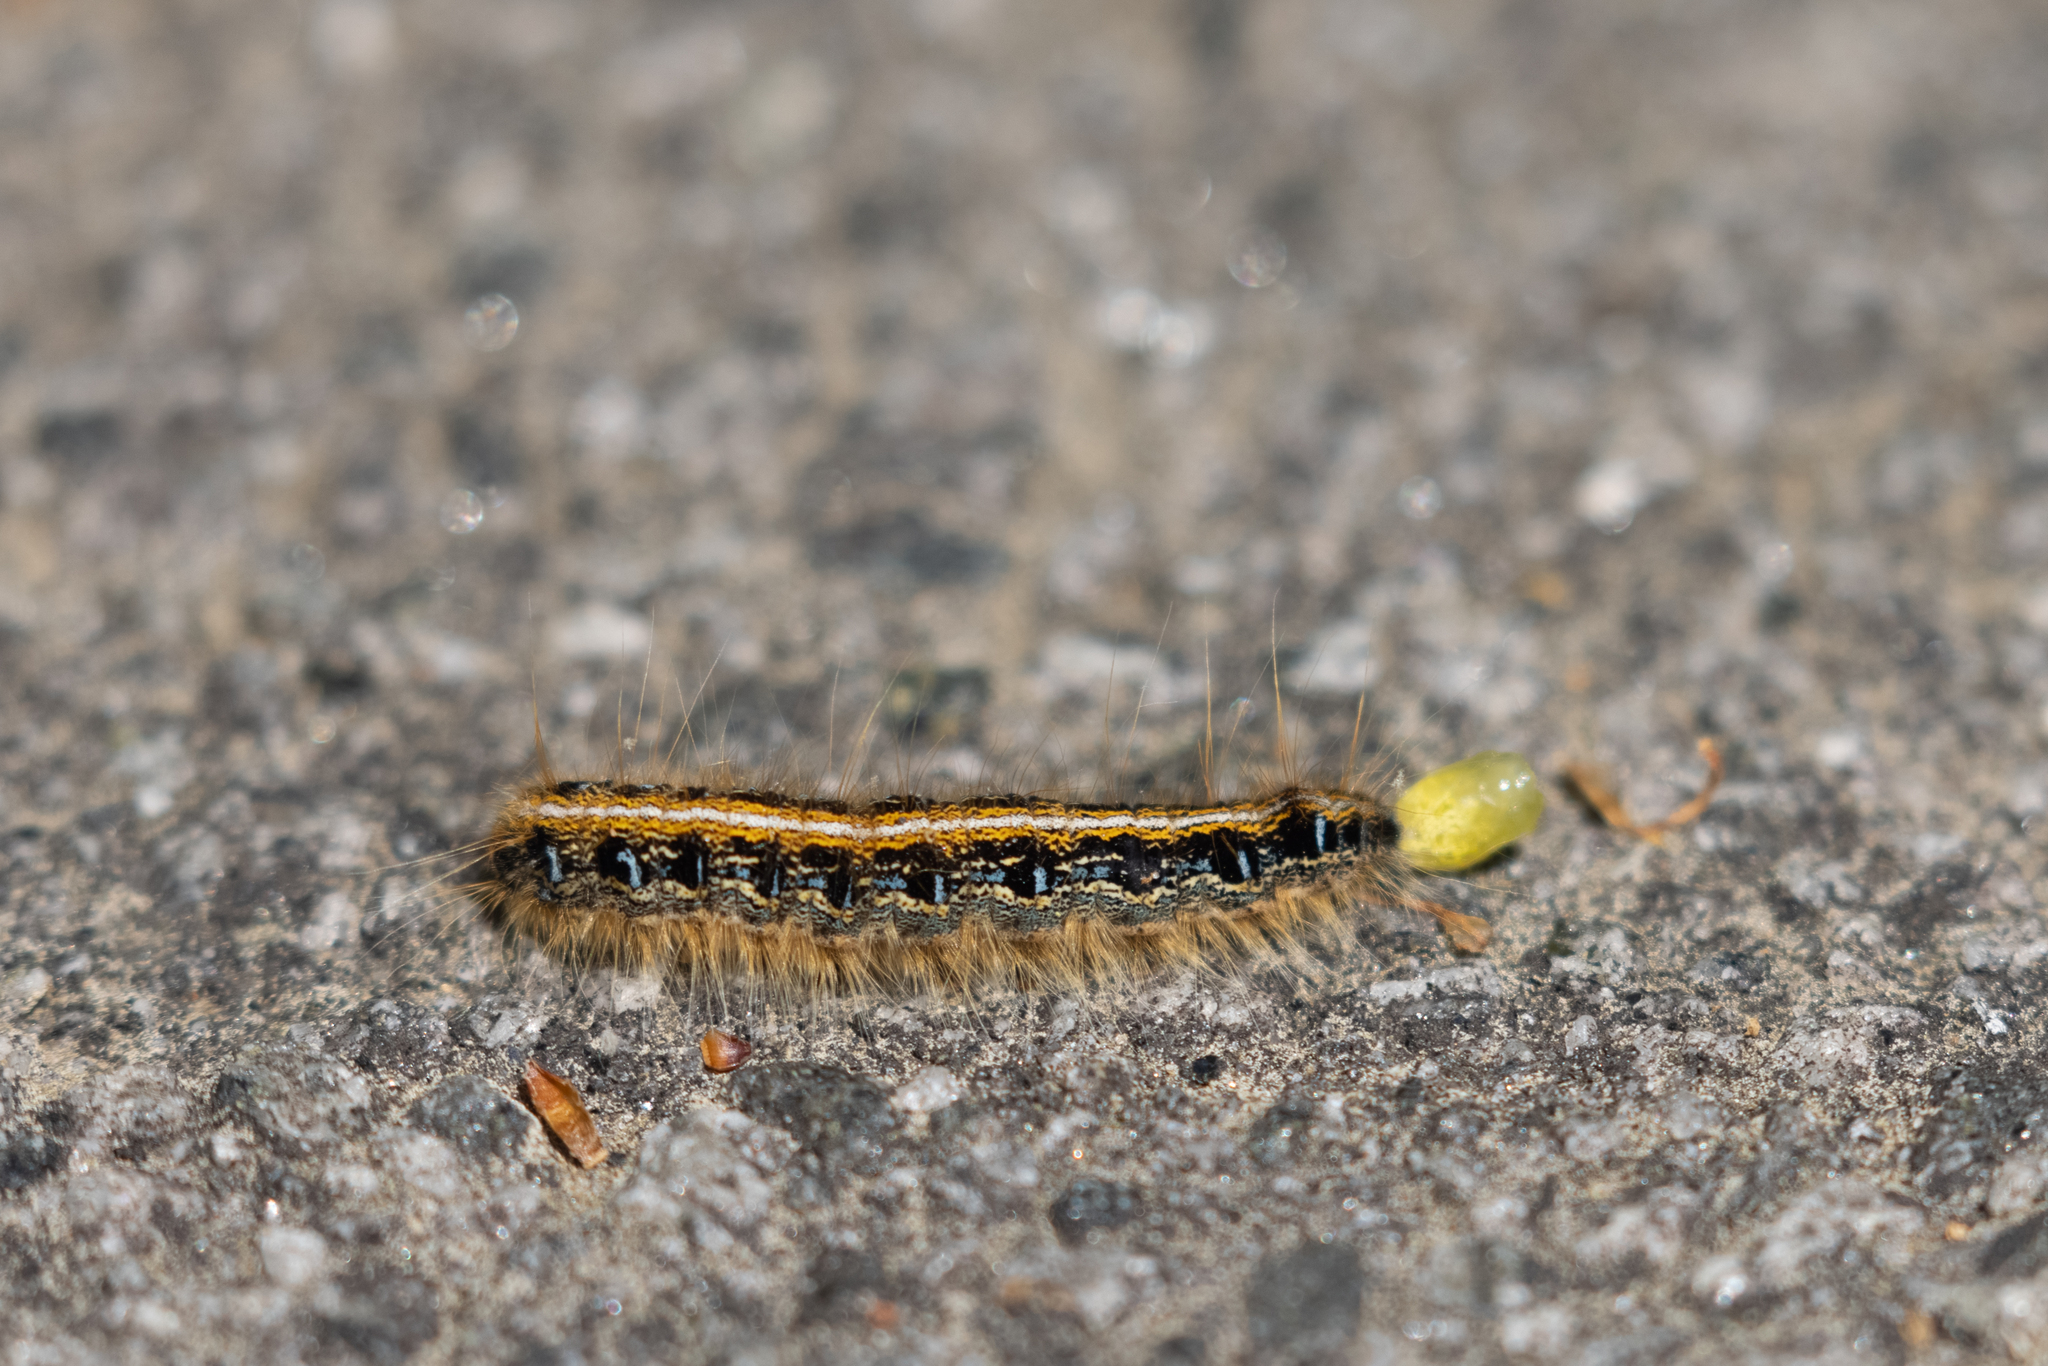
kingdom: Animalia
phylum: Arthropoda
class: Insecta
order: Lepidoptera
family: Lasiocampidae
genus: Malacosoma
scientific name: Malacosoma americana
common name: Eastern tent caterpillar moth
